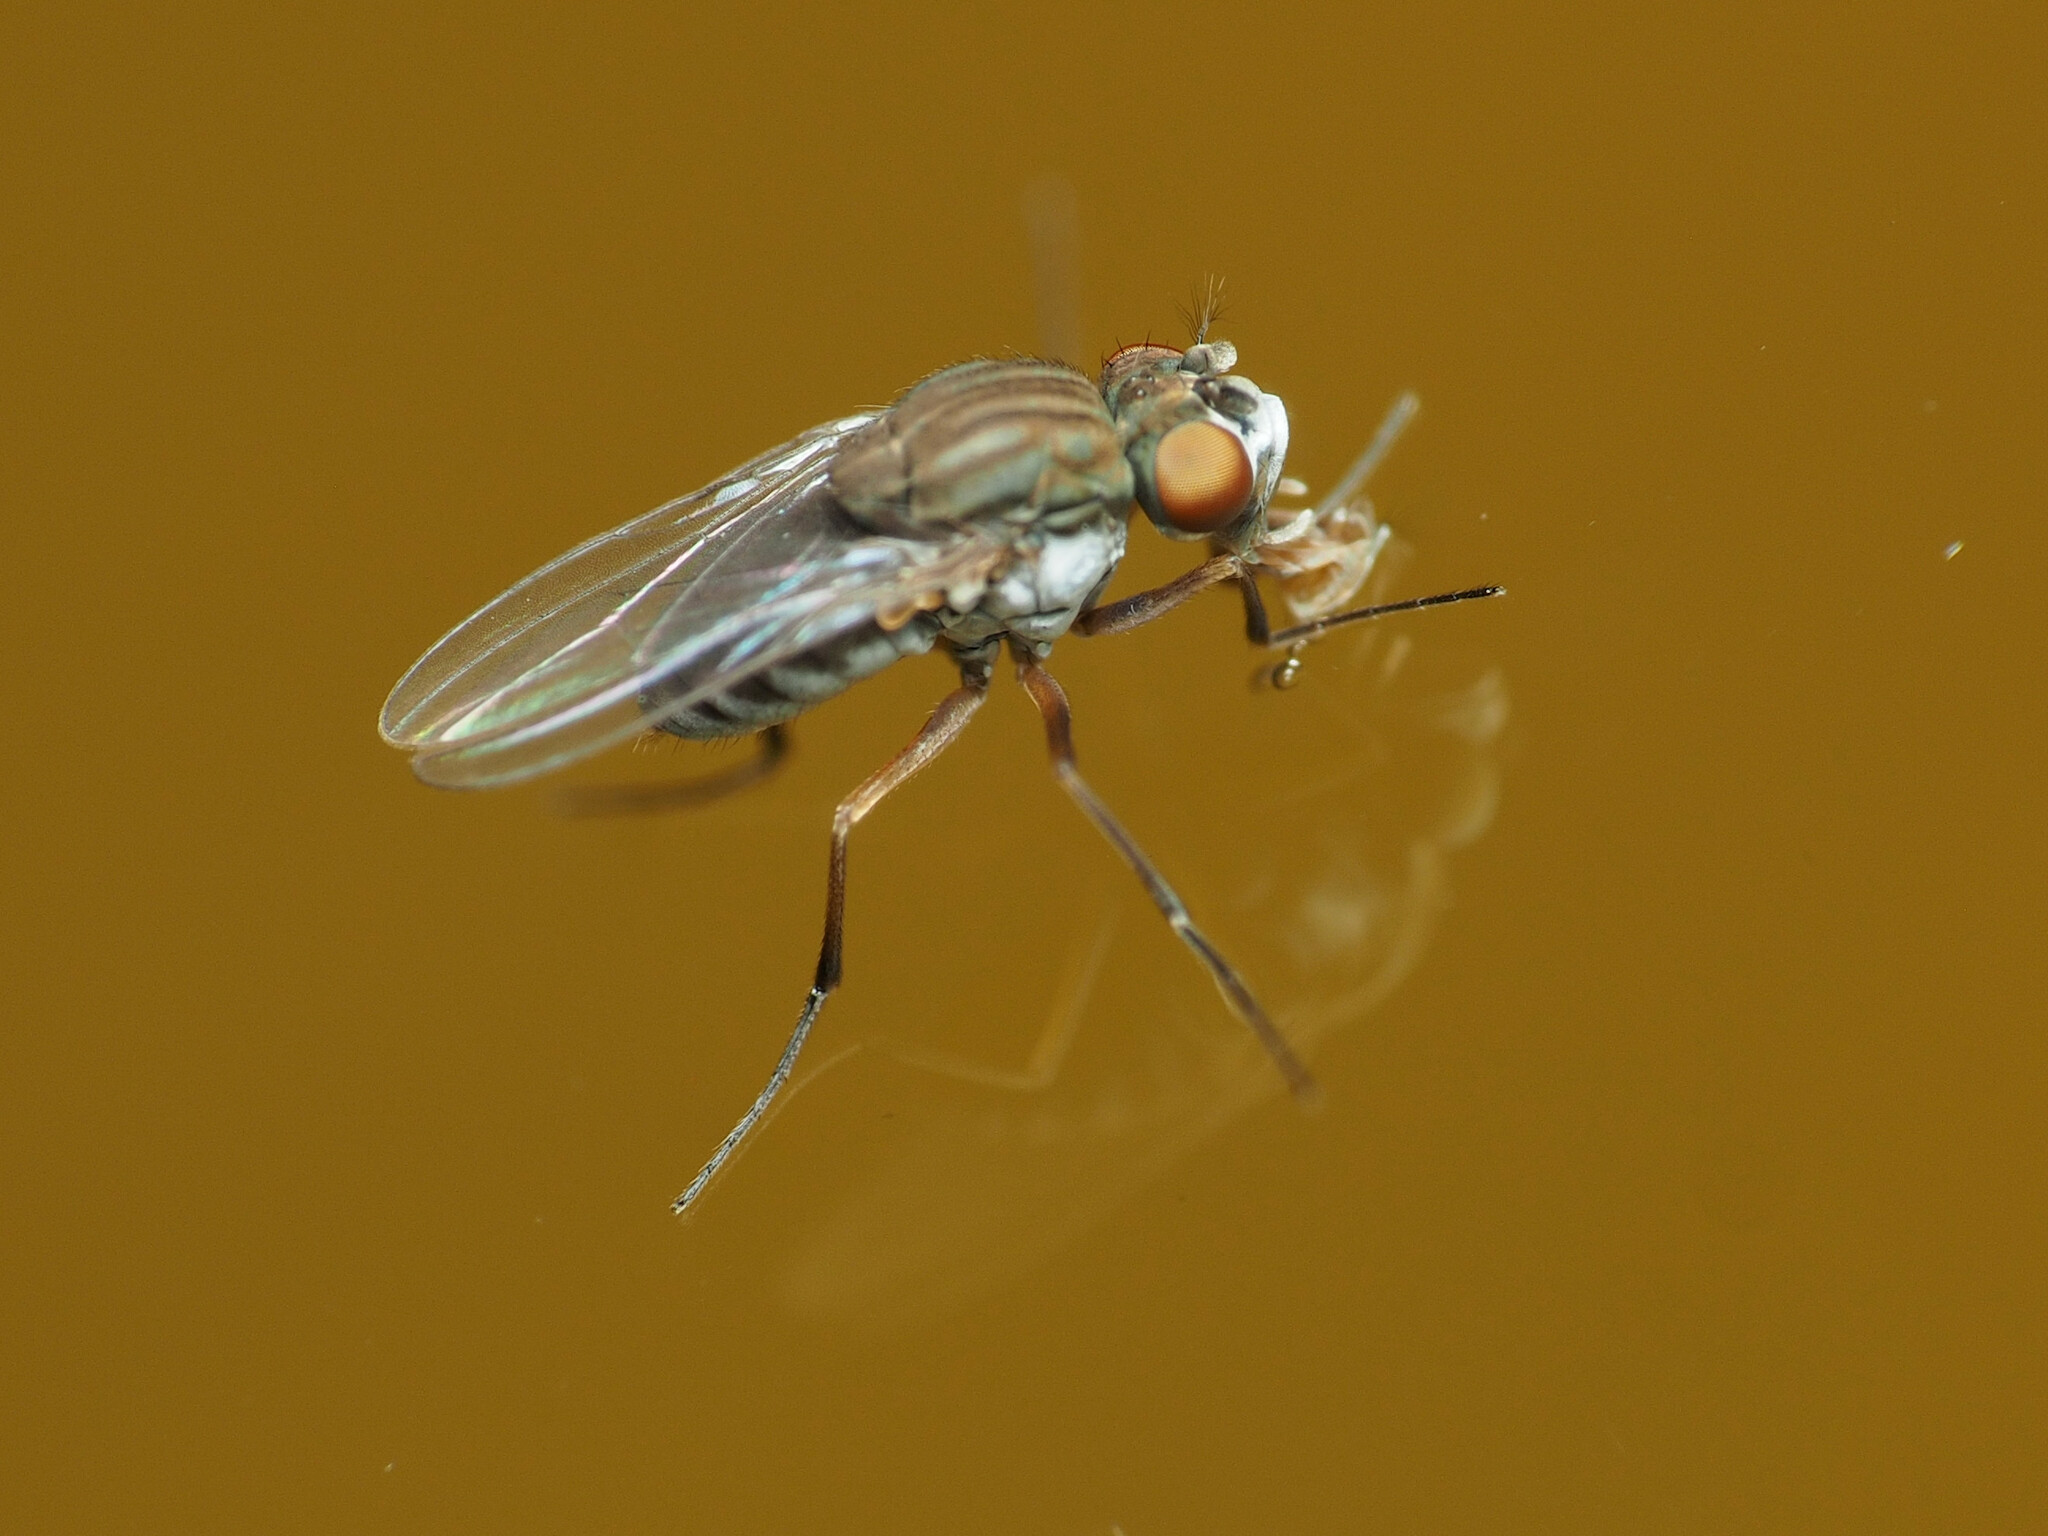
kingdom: Animalia
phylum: Arthropoda
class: Insecta
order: Diptera
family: Ephydridae
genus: Brachydeutera
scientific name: Brachydeutera argentata
